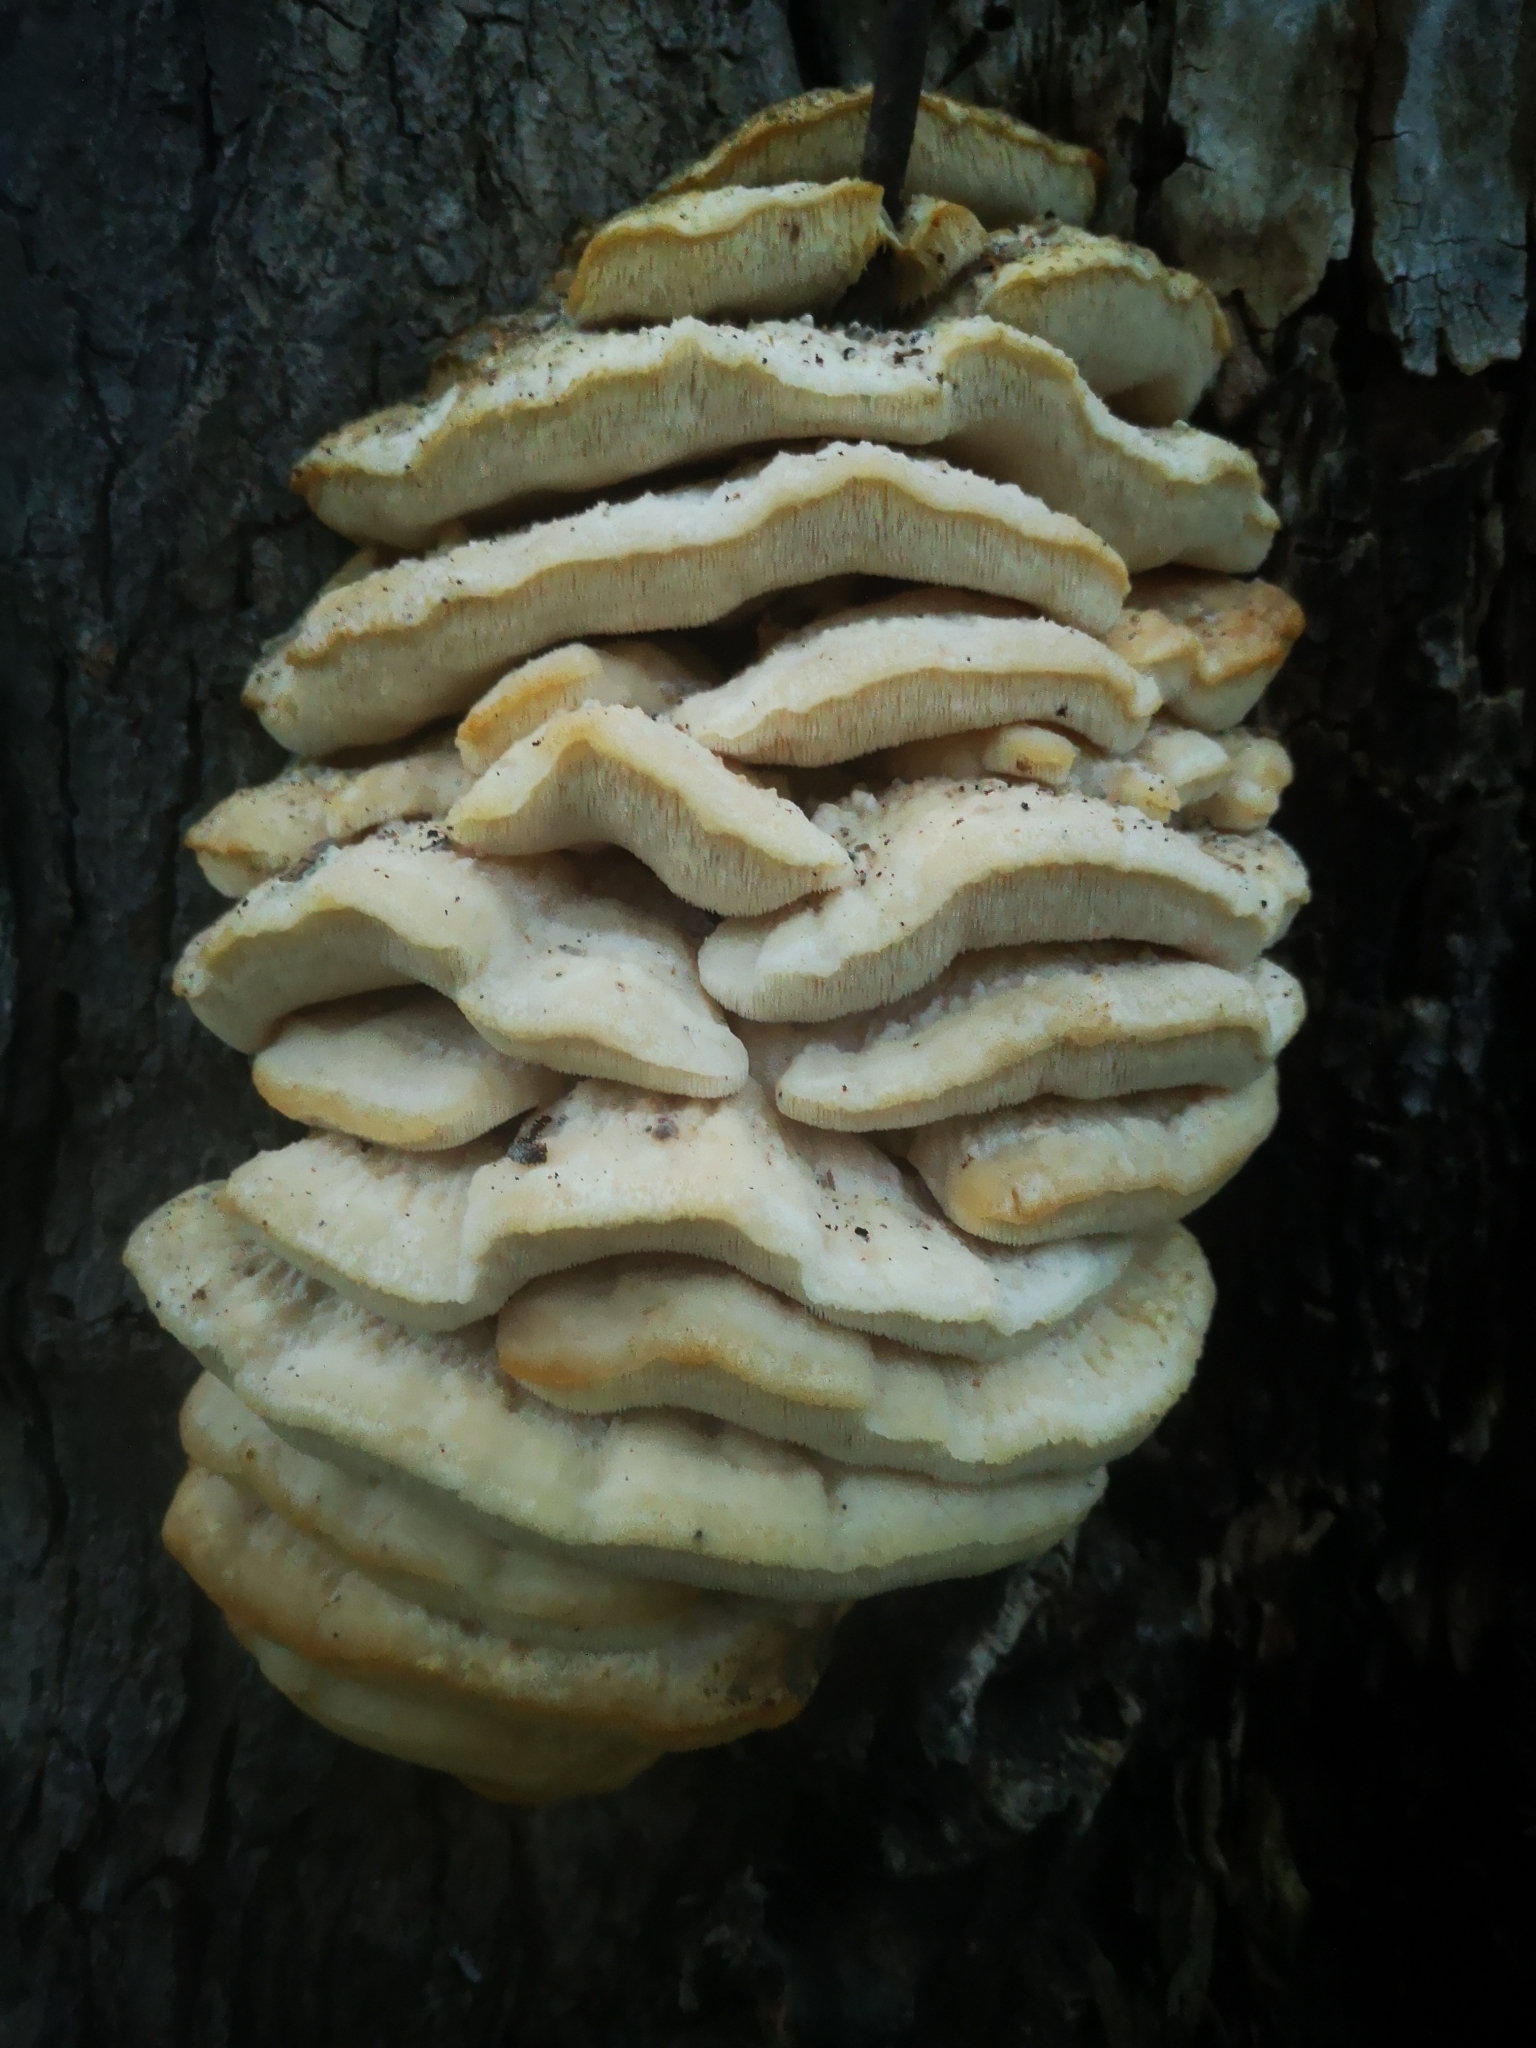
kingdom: Fungi
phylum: Basidiomycota
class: Agaricomycetes
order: Polyporales
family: Meruliaceae
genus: Climacodon
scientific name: Climacodon septentrionalis
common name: Northern tooth
